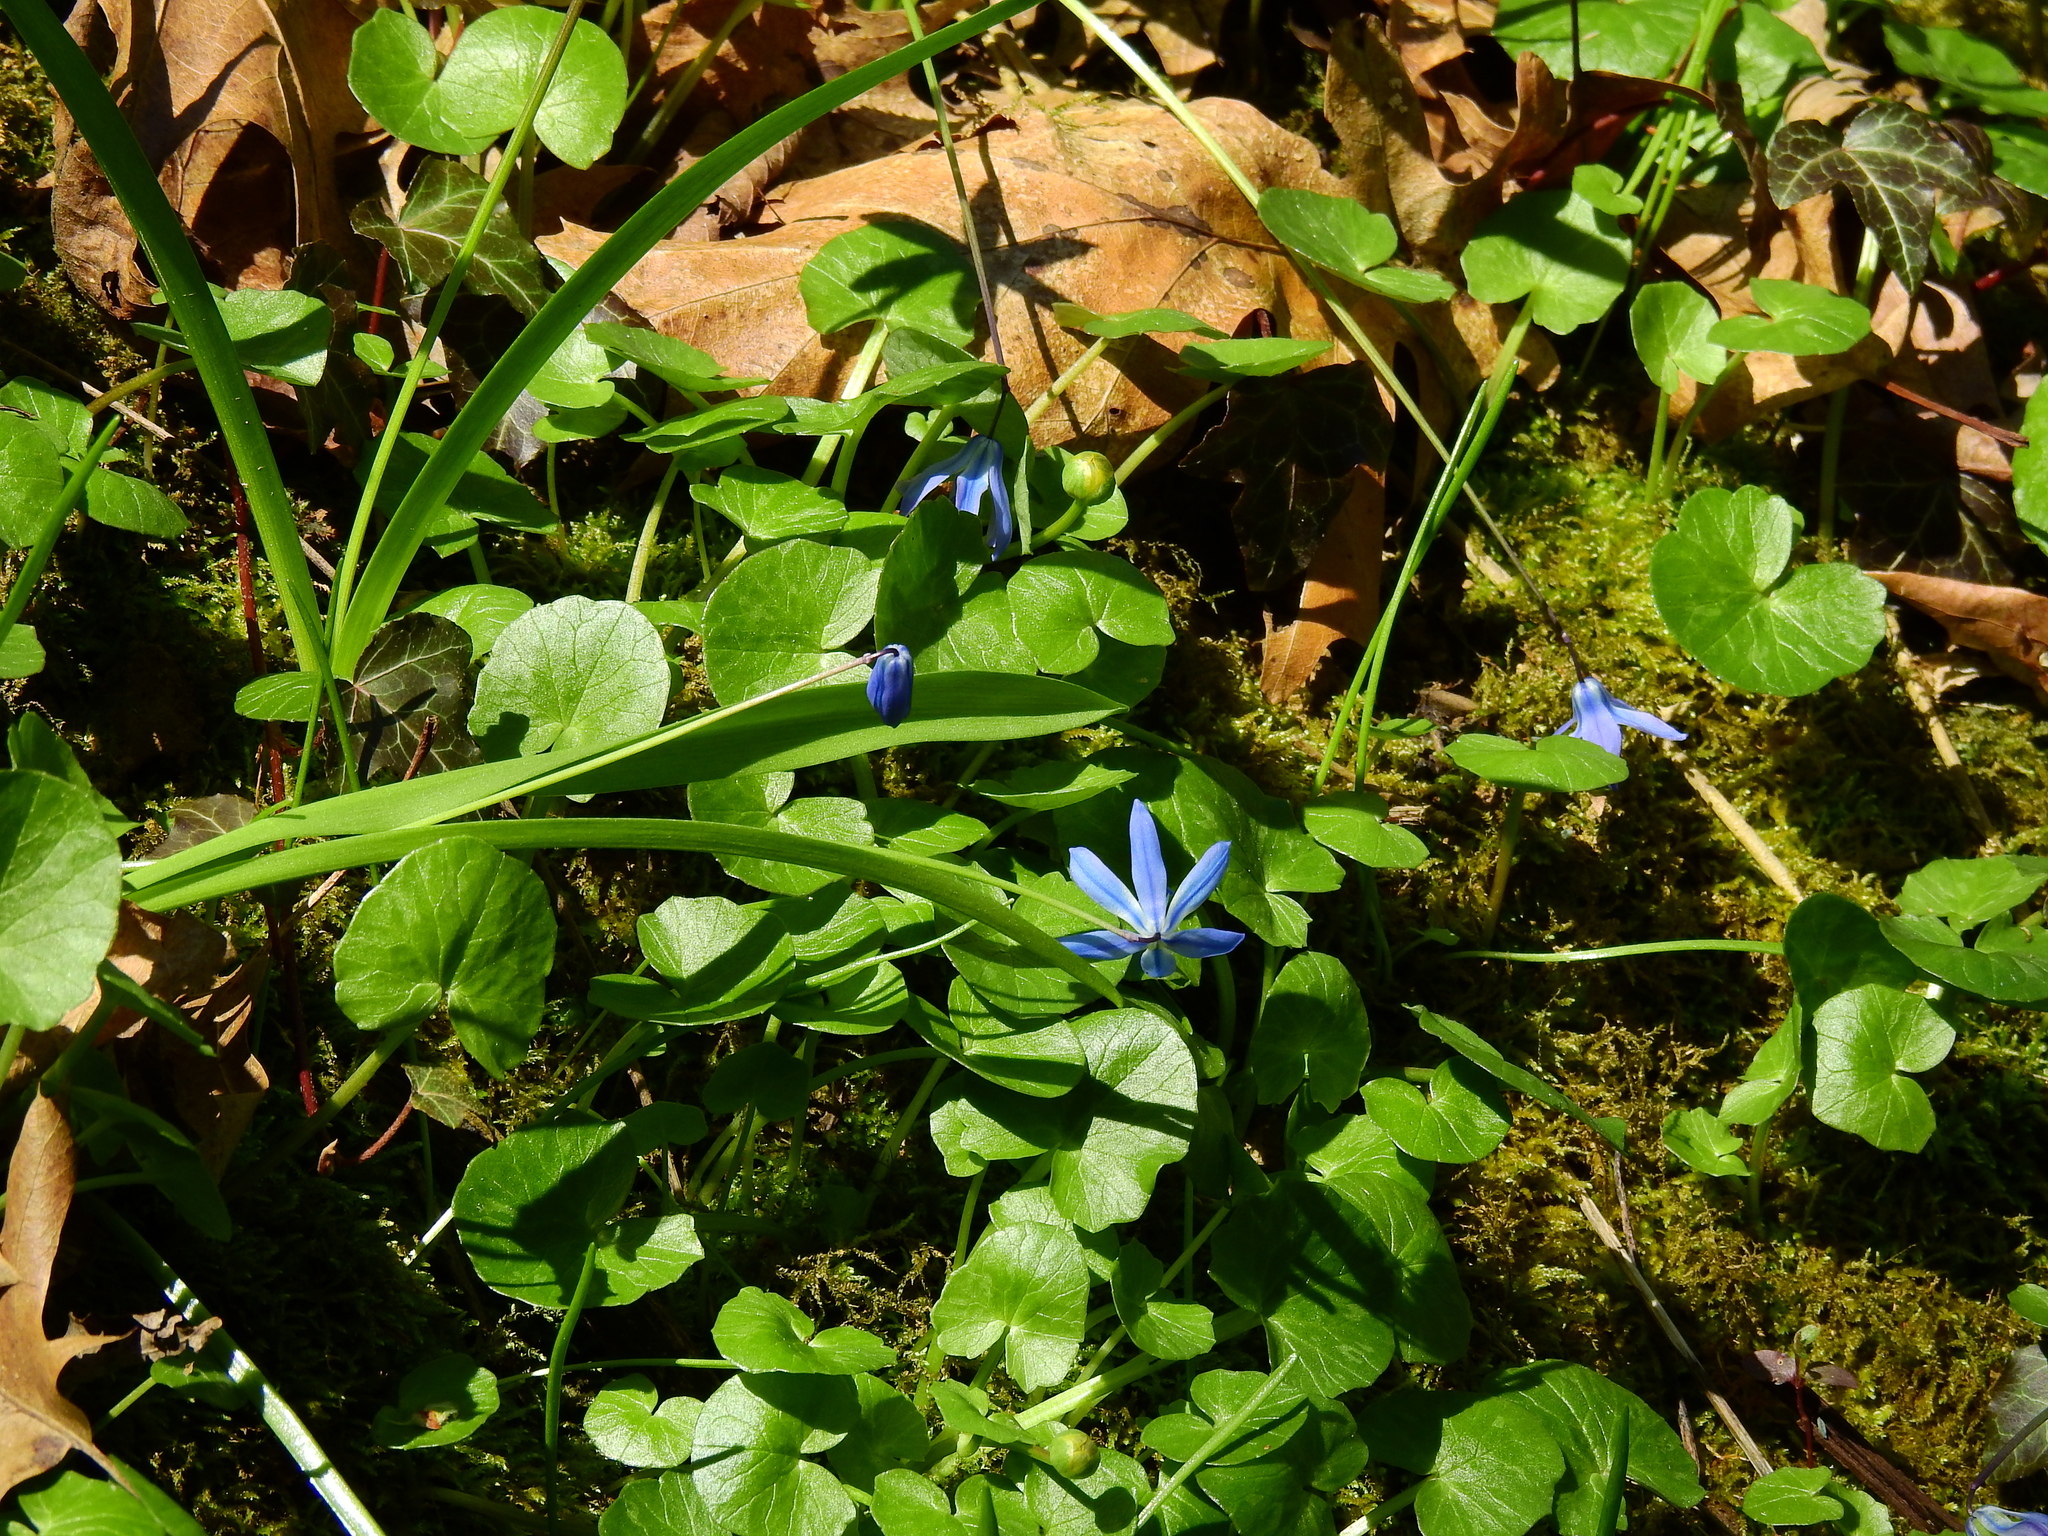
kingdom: Plantae
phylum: Tracheophyta
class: Liliopsida
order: Asparagales
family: Asparagaceae
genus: Scilla
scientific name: Scilla siberica
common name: Siberian squill
